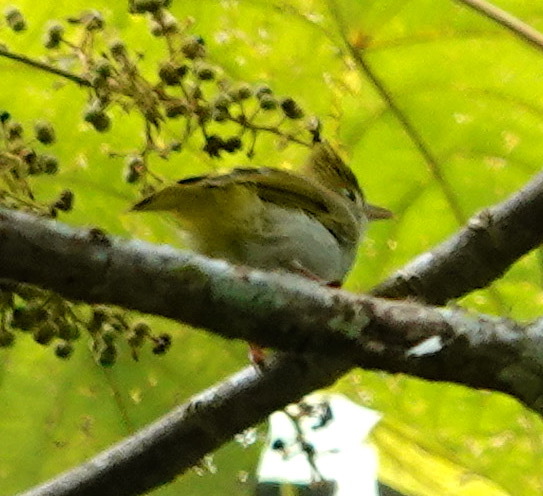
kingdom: Animalia
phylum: Chordata
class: Aves
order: Passeriformes
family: Vireonidae
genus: Erpornis
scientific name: Erpornis zantholeuca
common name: White-bellied erpornis
